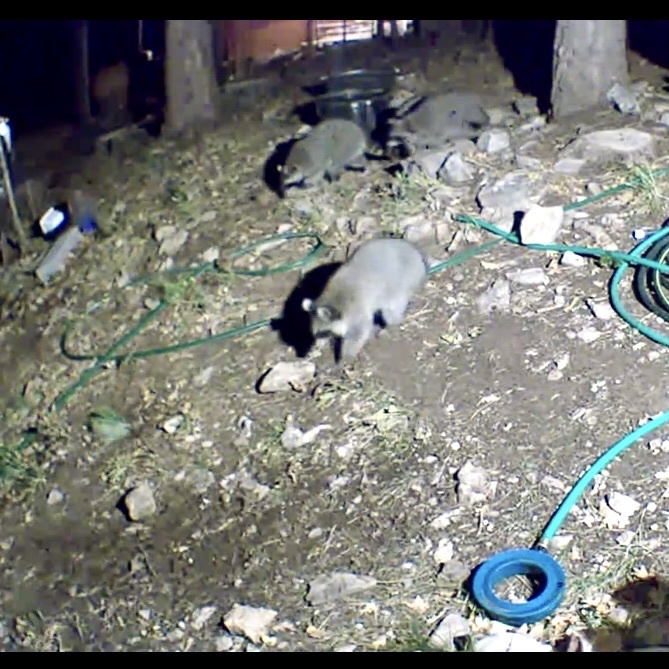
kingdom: Animalia
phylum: Chordata
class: Mammalia
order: Carnivora
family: Procyonidae
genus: Procyon
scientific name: Procyon lotor
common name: Raccoon
